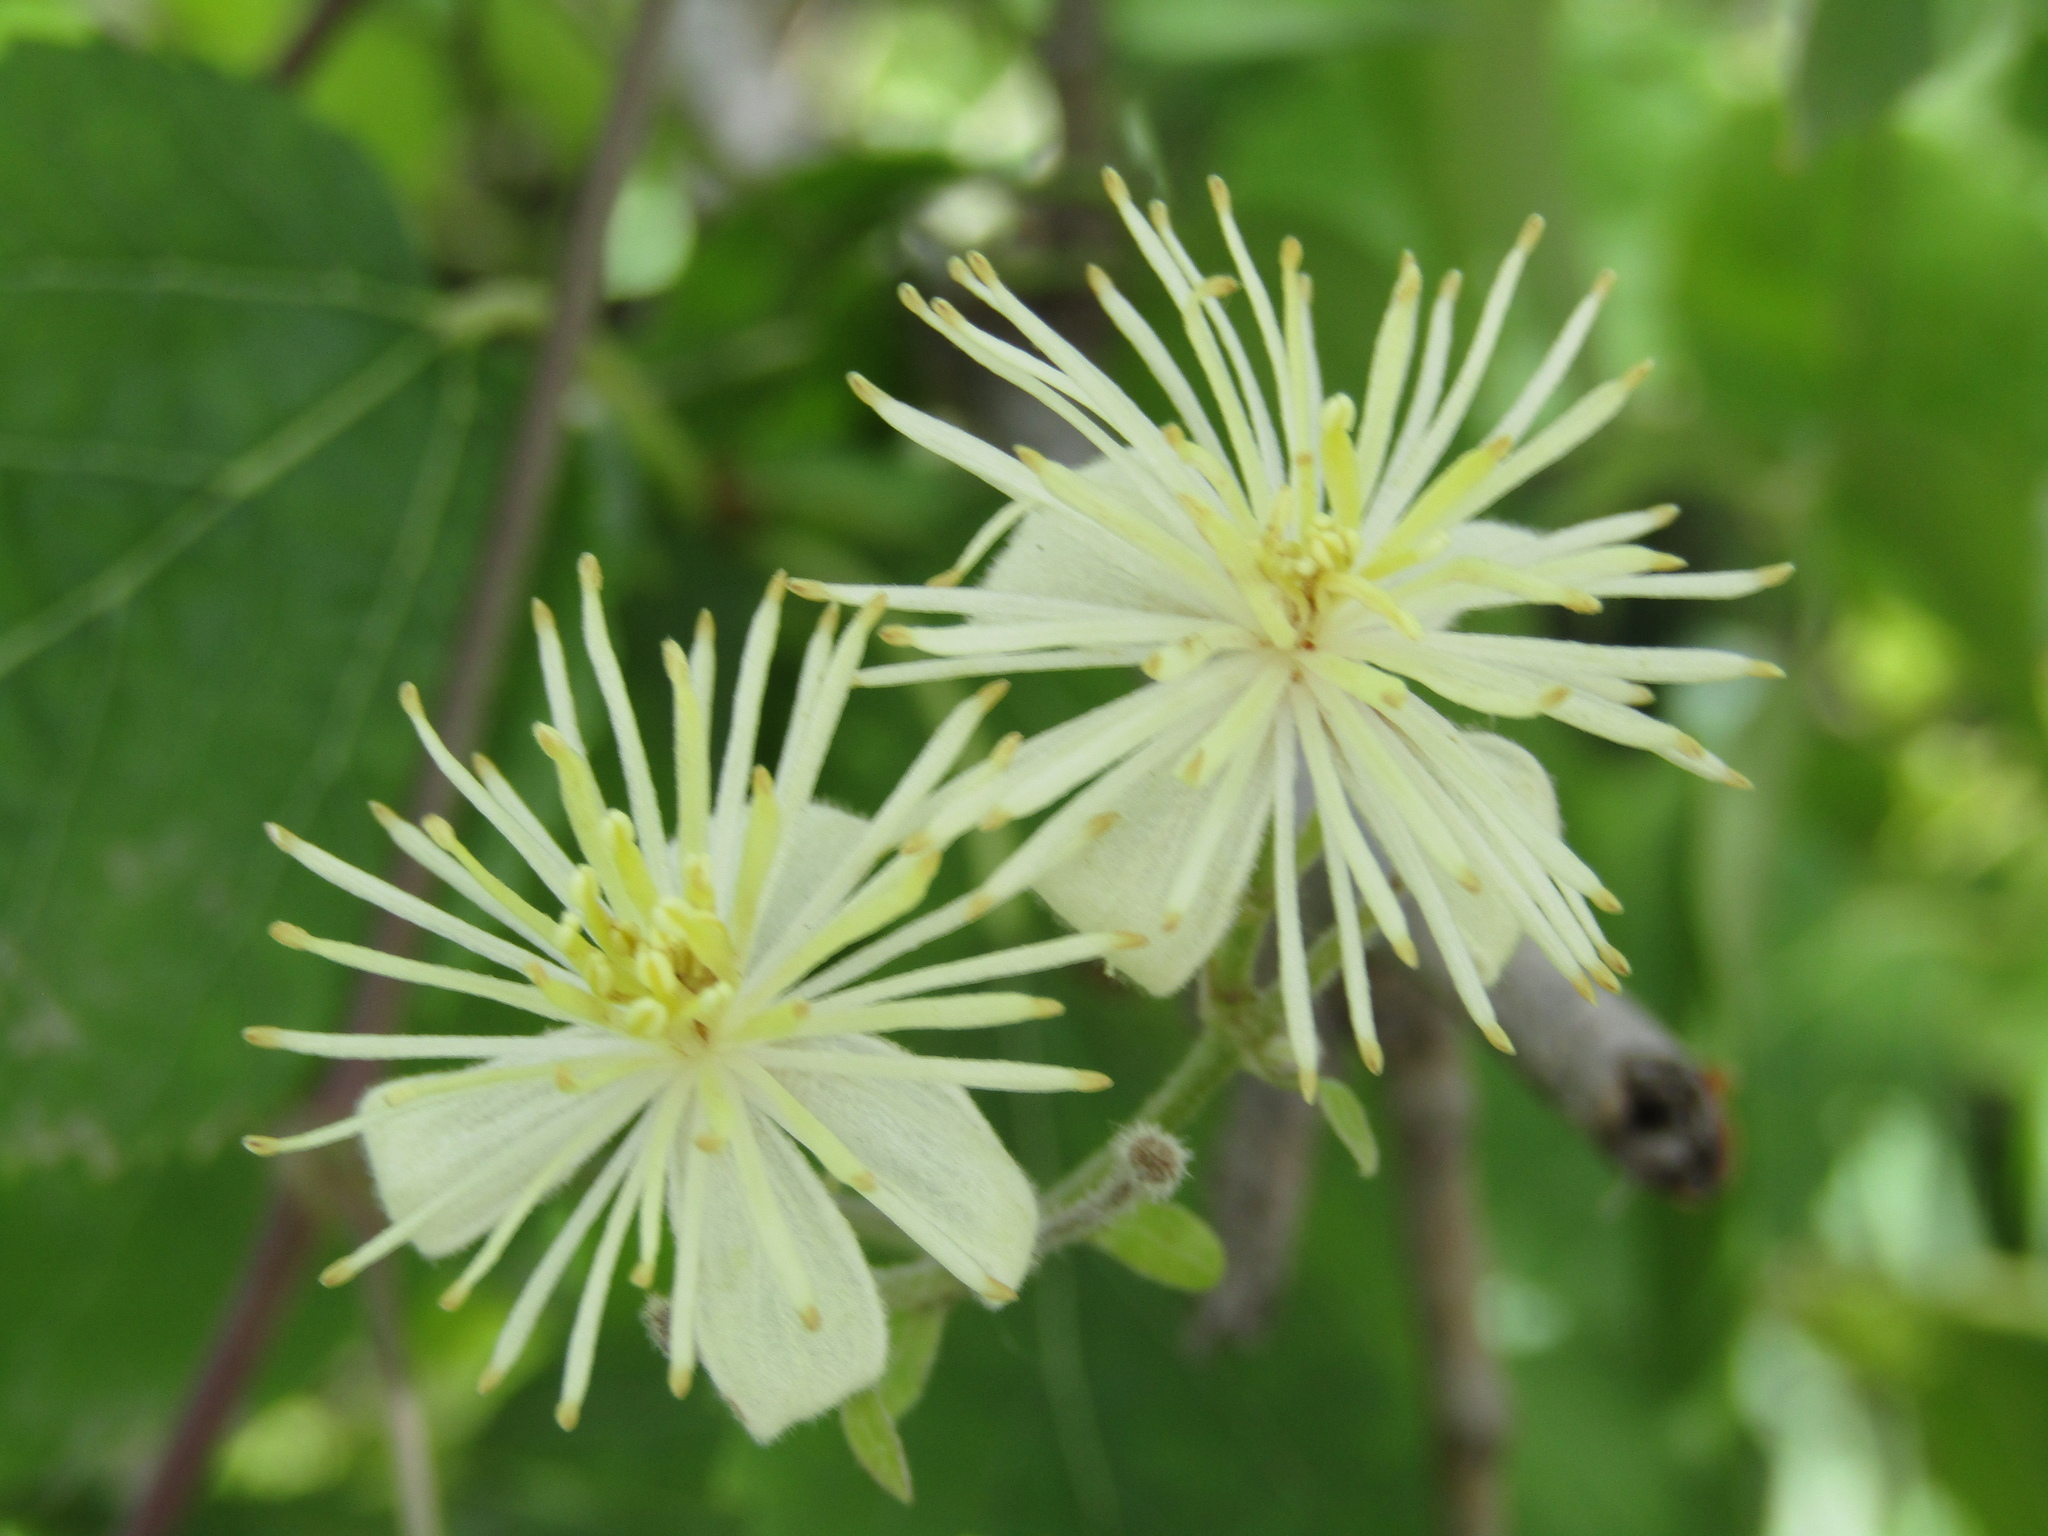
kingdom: Plantae
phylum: Tracheophyta
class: Magnoliopsida
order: Ranunculales
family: Ranunculaceae
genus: Clematis
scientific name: Clematis montevidensis
